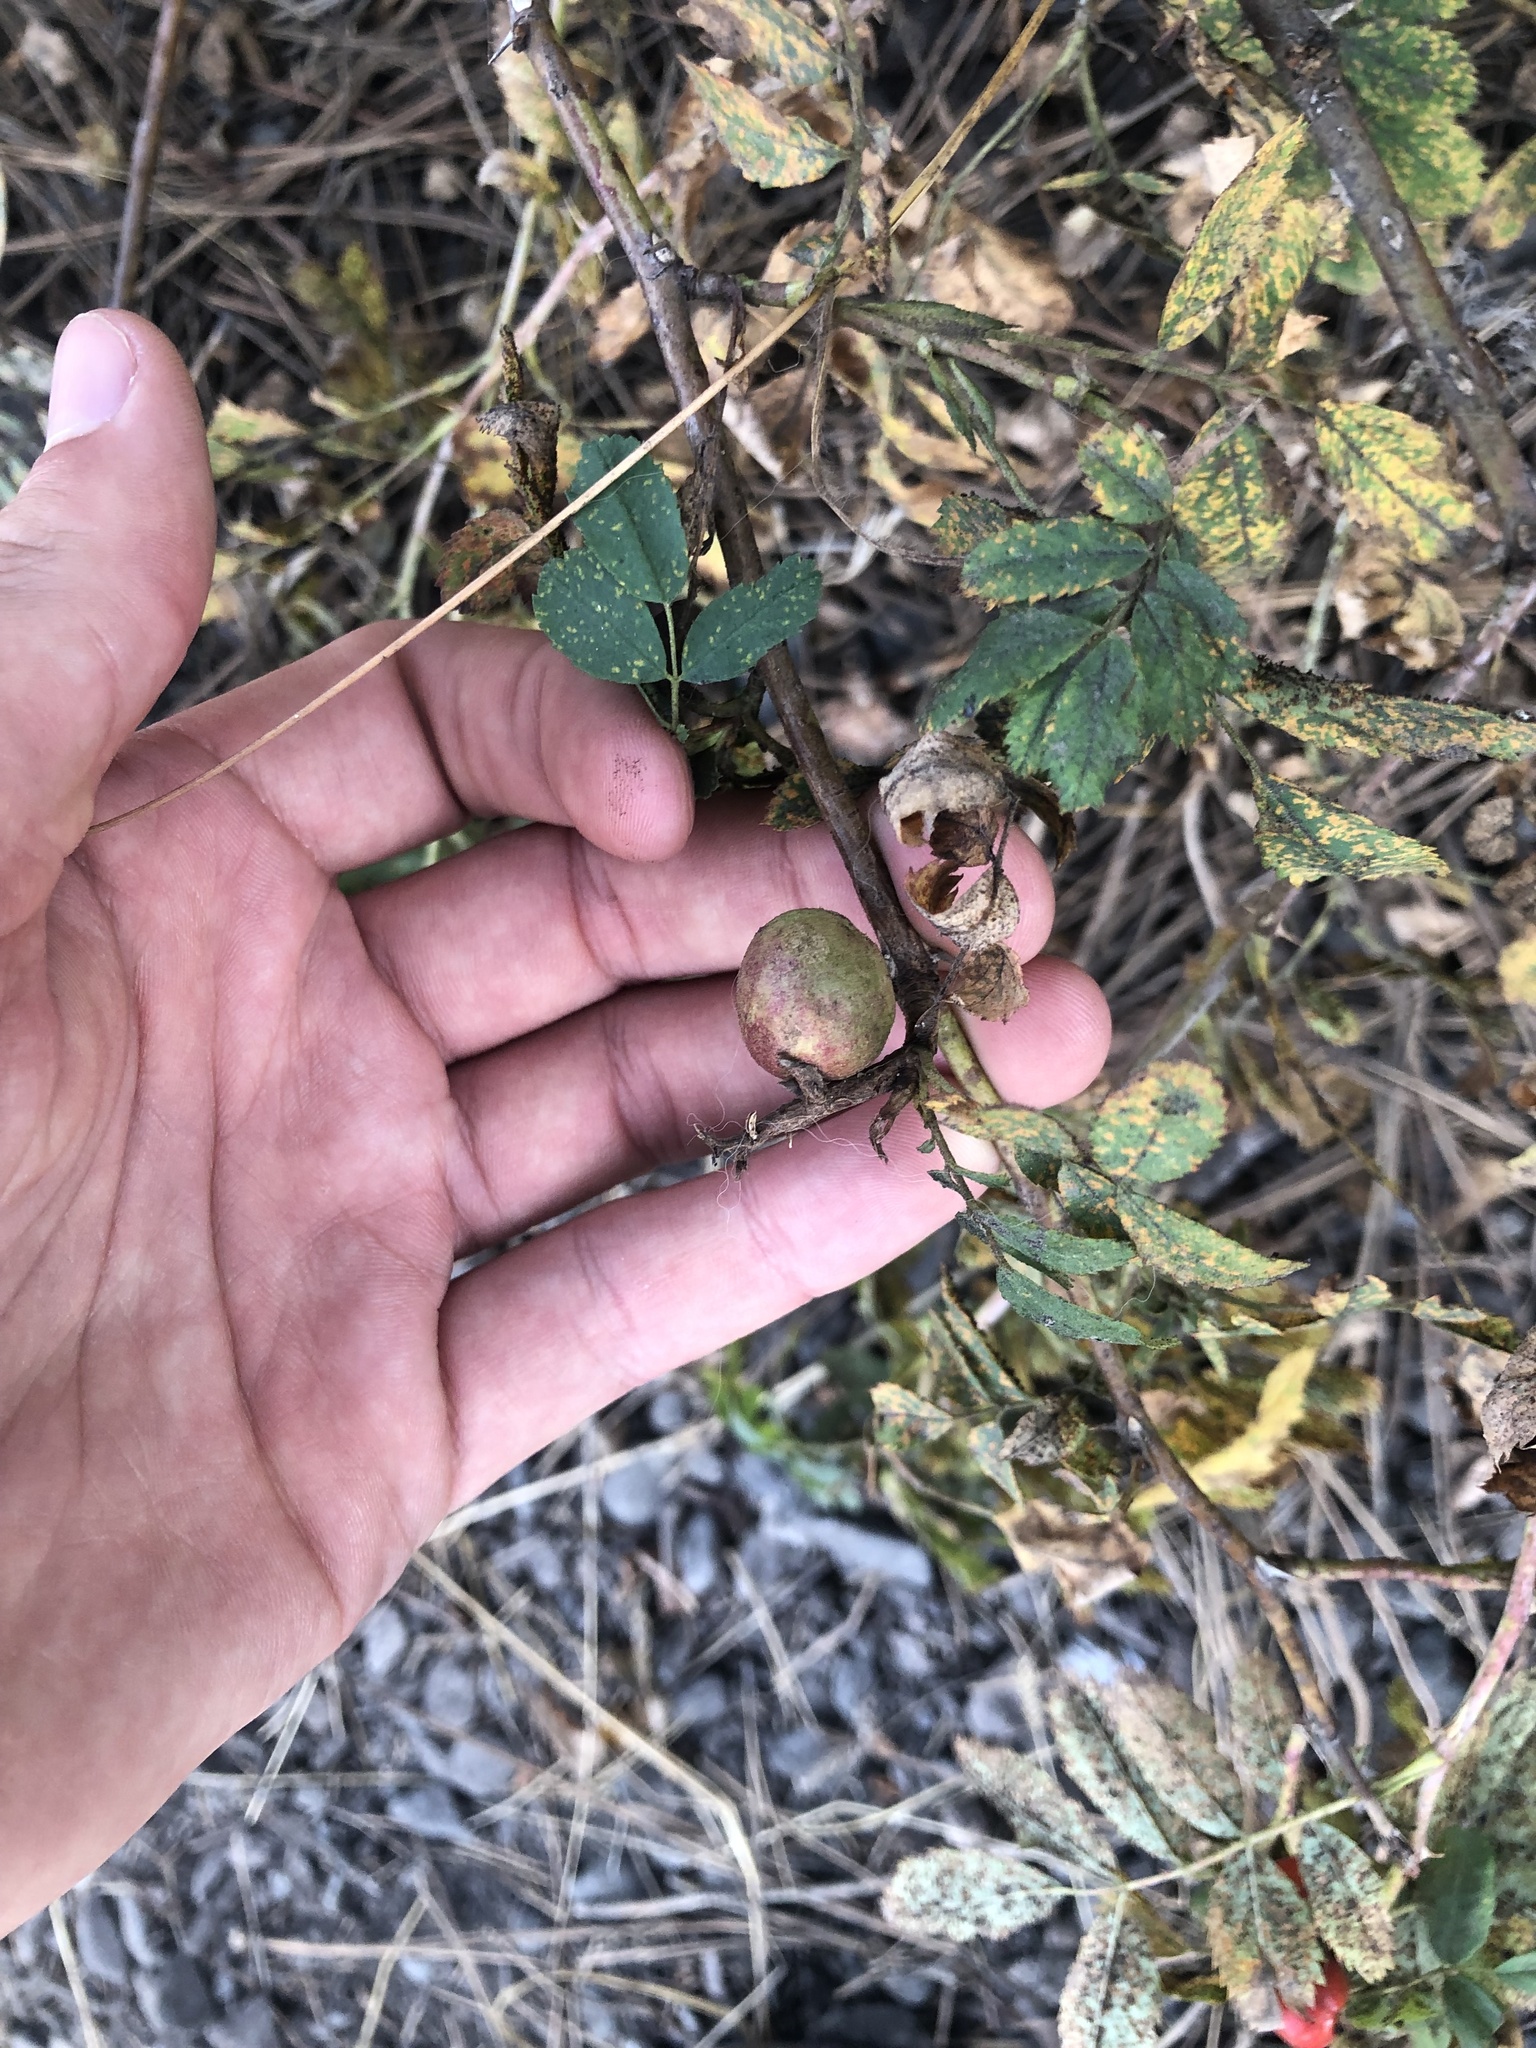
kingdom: Animalia
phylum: Arthropoda
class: Insecta
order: Hymenoptera
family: Cynipidae
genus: Diplolepis
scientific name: Diplolepis variabilis
